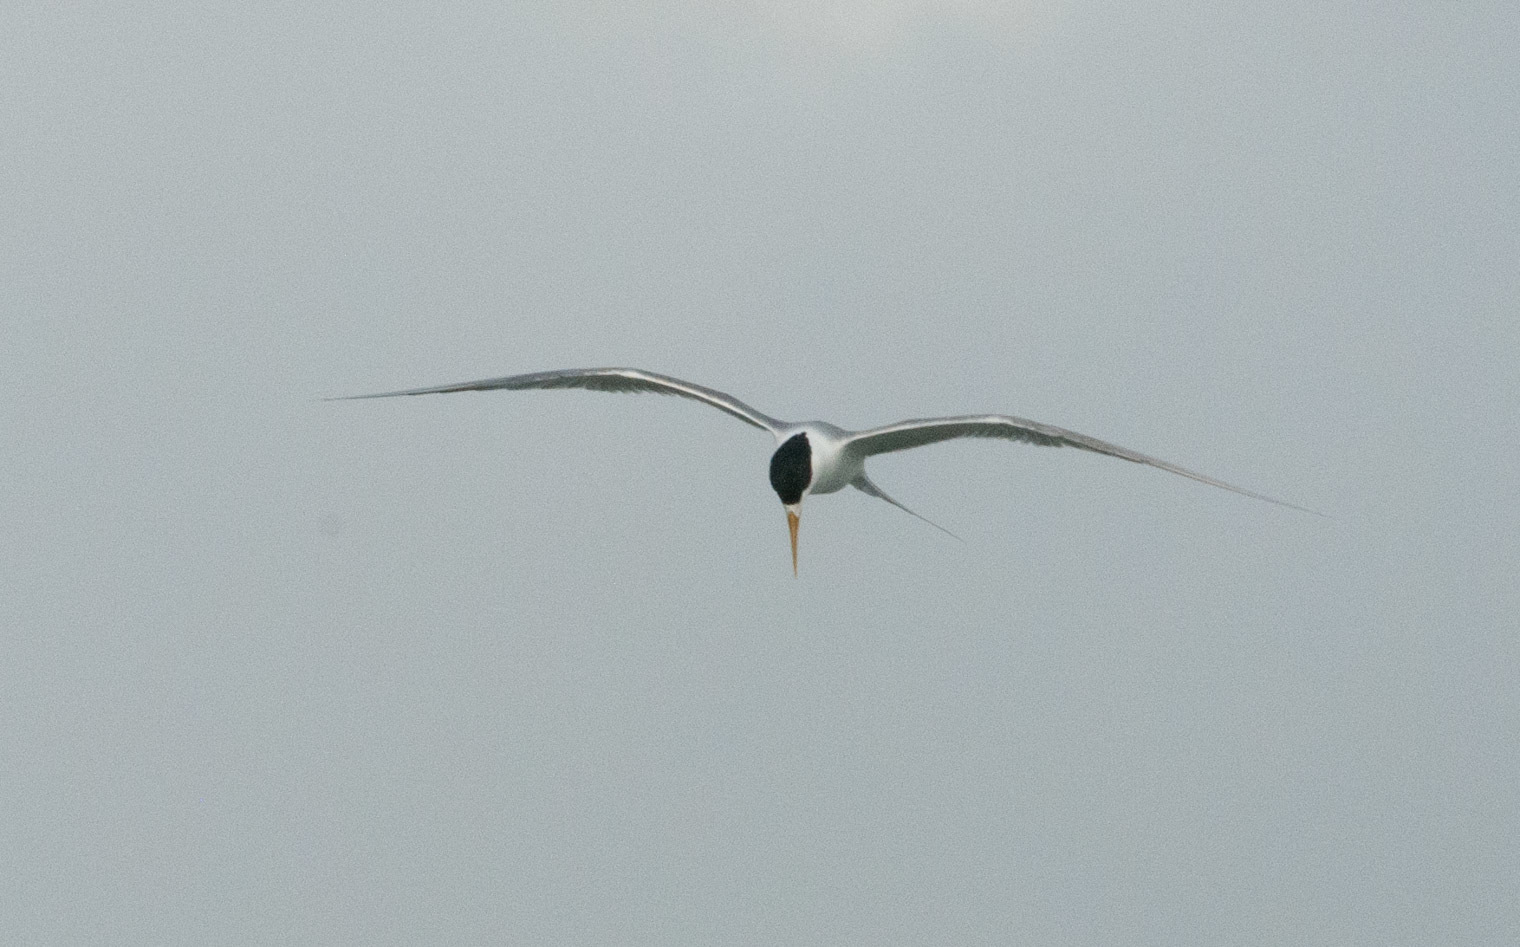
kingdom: Animalia
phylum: Chordata
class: Aves
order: Charadriiformes
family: Laridae
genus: Thalasseus
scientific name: Thalasseus bergii
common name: Greater crested tern
